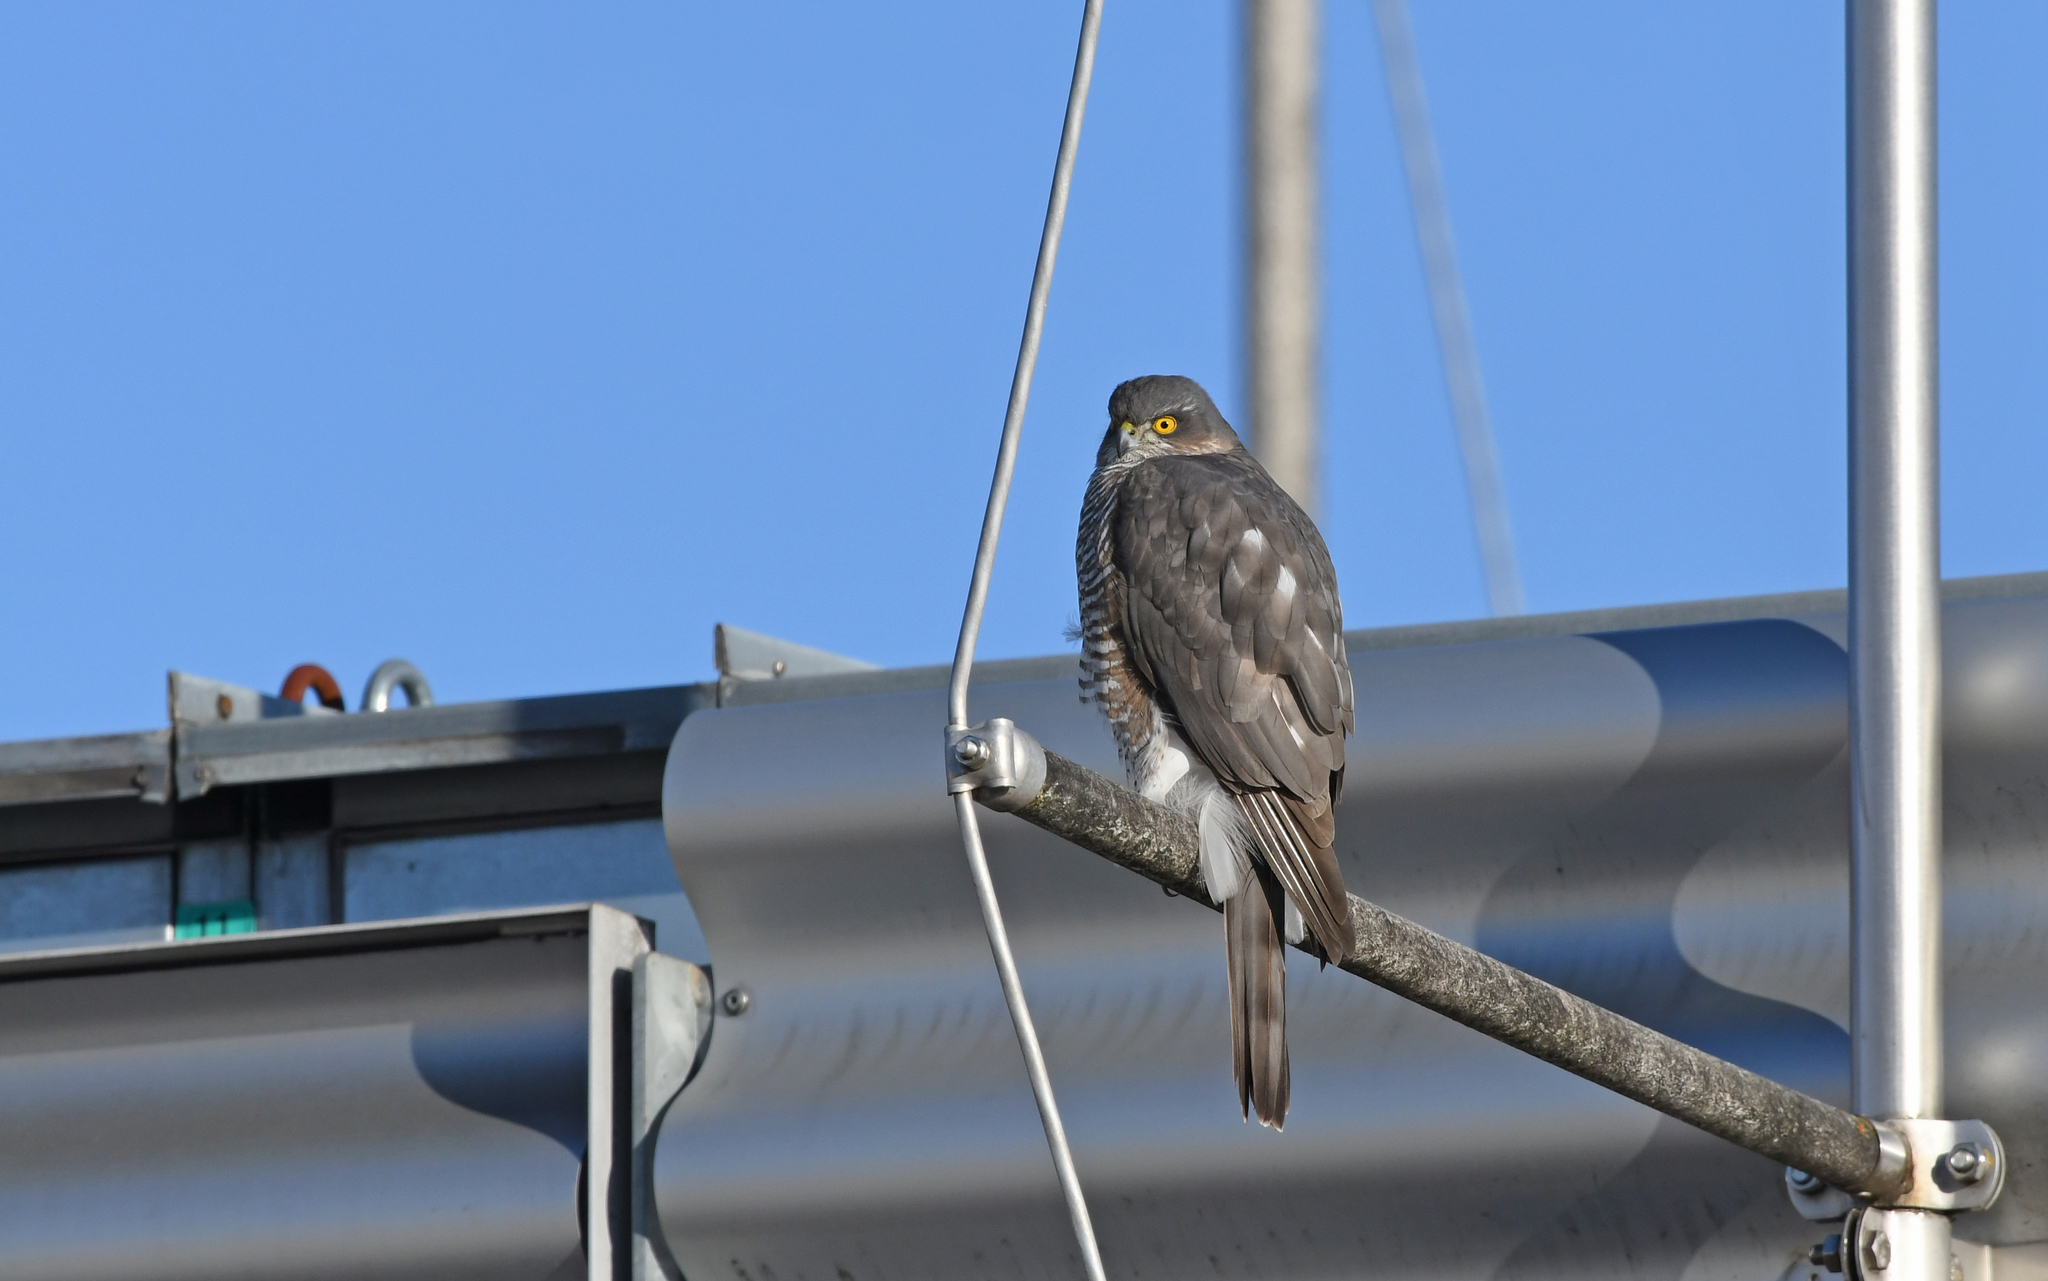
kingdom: Animalia
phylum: Chordata
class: Aves
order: Accipitriformes
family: Accipitridae
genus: Accipiter
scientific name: Accipiter nisus
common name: Eurasian sparrowhawk
